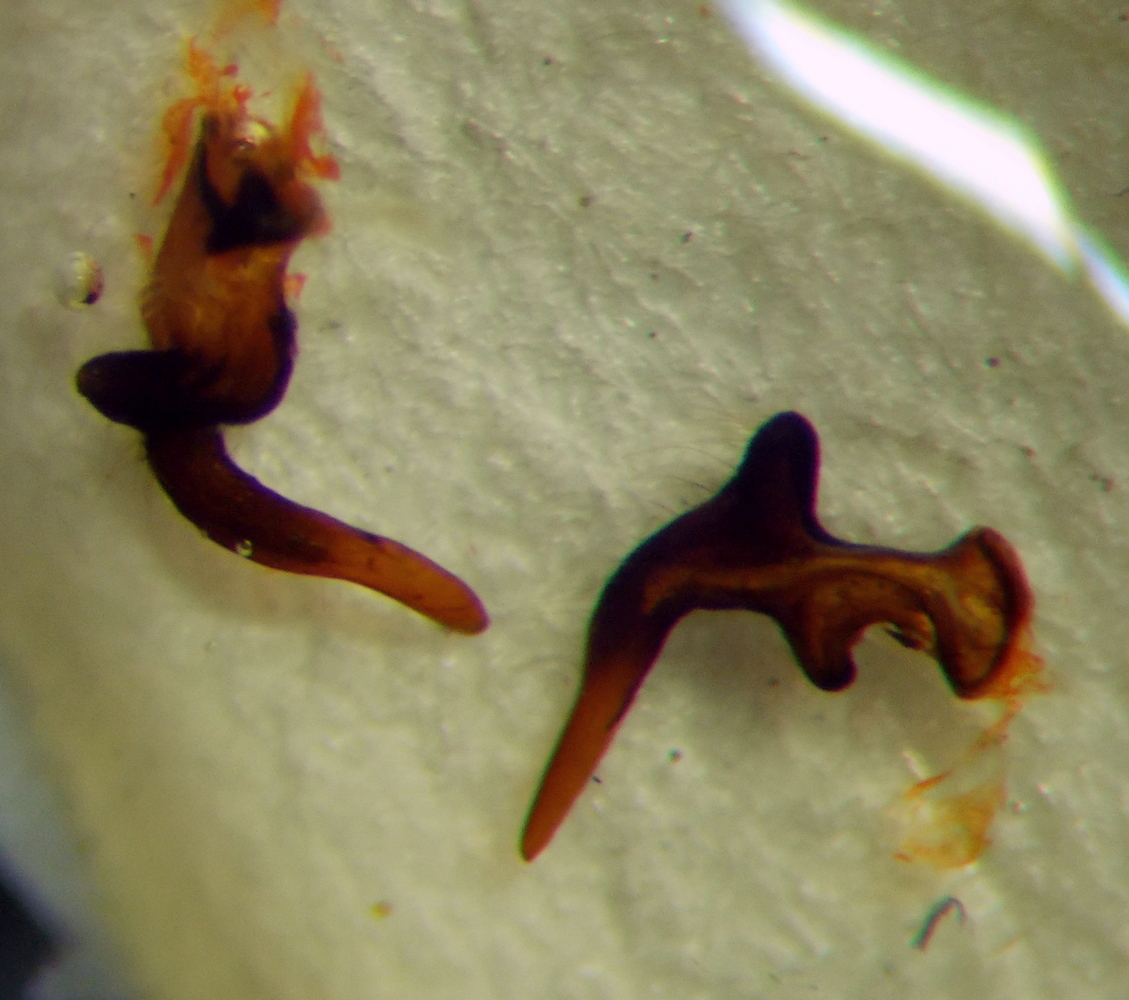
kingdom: Animalia
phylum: Arthropoda
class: Insecta
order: Hemiptera
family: Lygaeidae
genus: Lygaeus
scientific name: Lygaeus simulans
